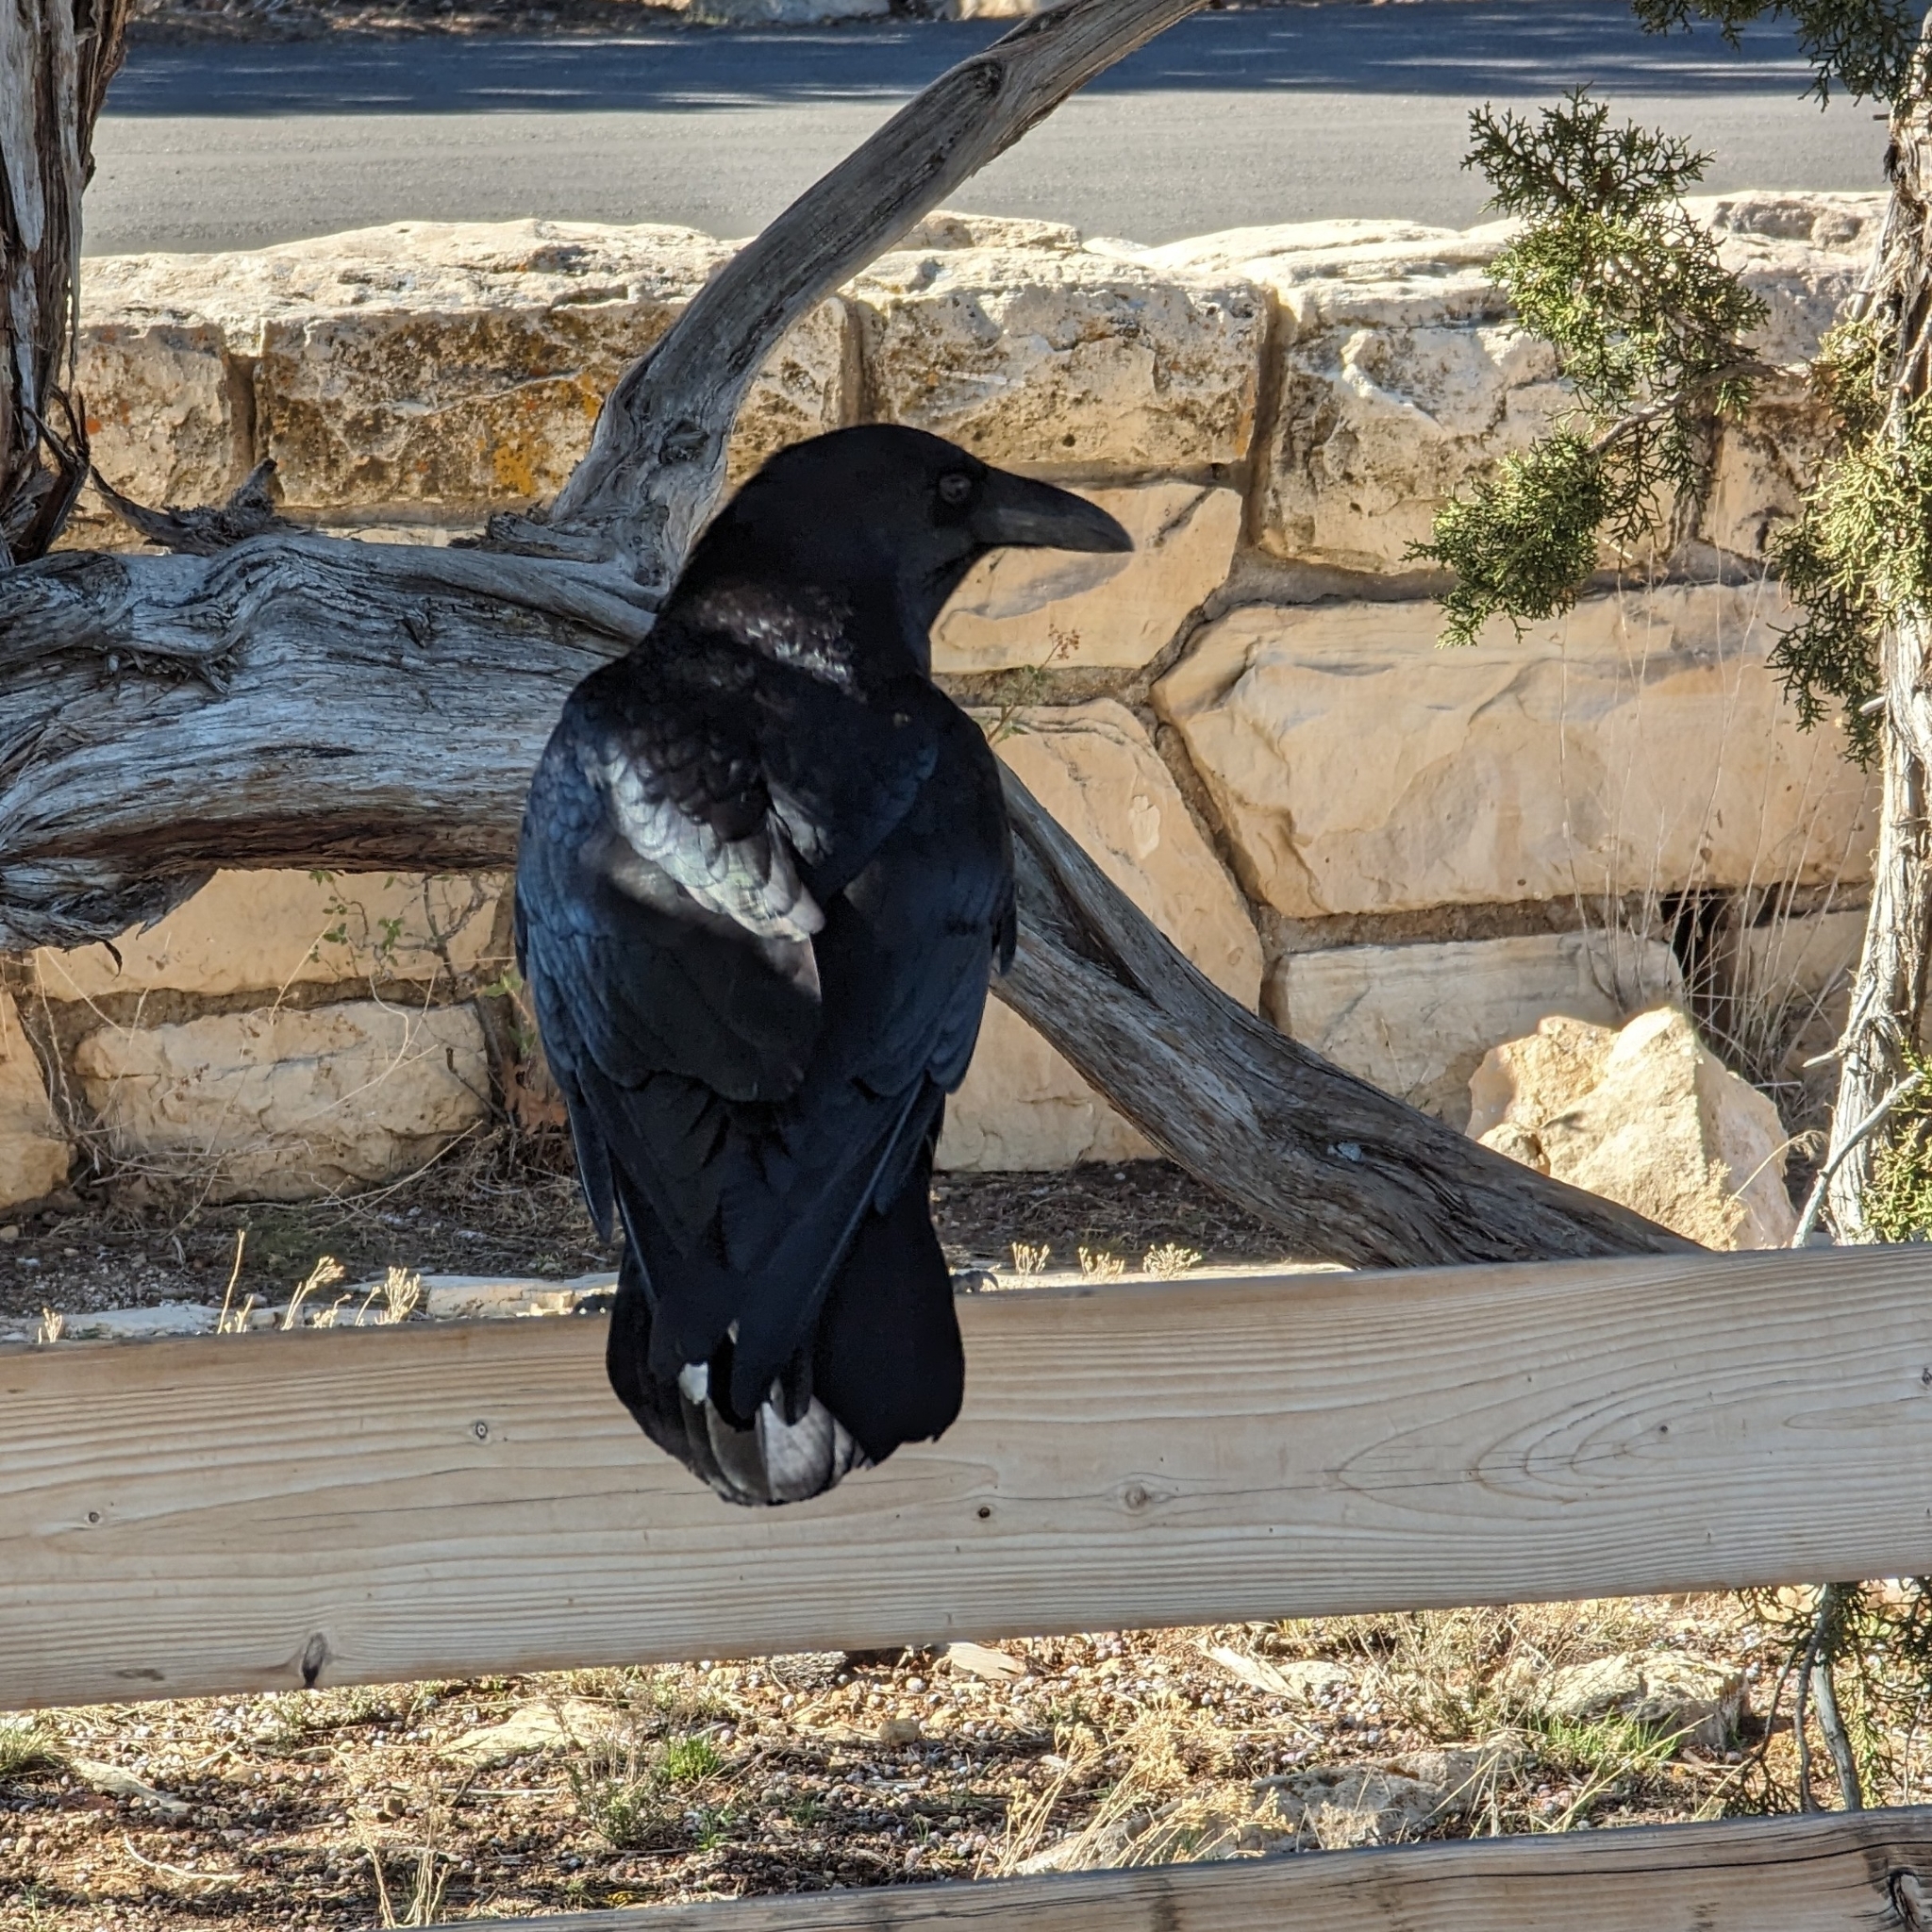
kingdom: Animalia
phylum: Chordata
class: Aves
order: Passeriformes
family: Corvidae
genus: Corvus
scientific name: Corvus corax
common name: Common raven
